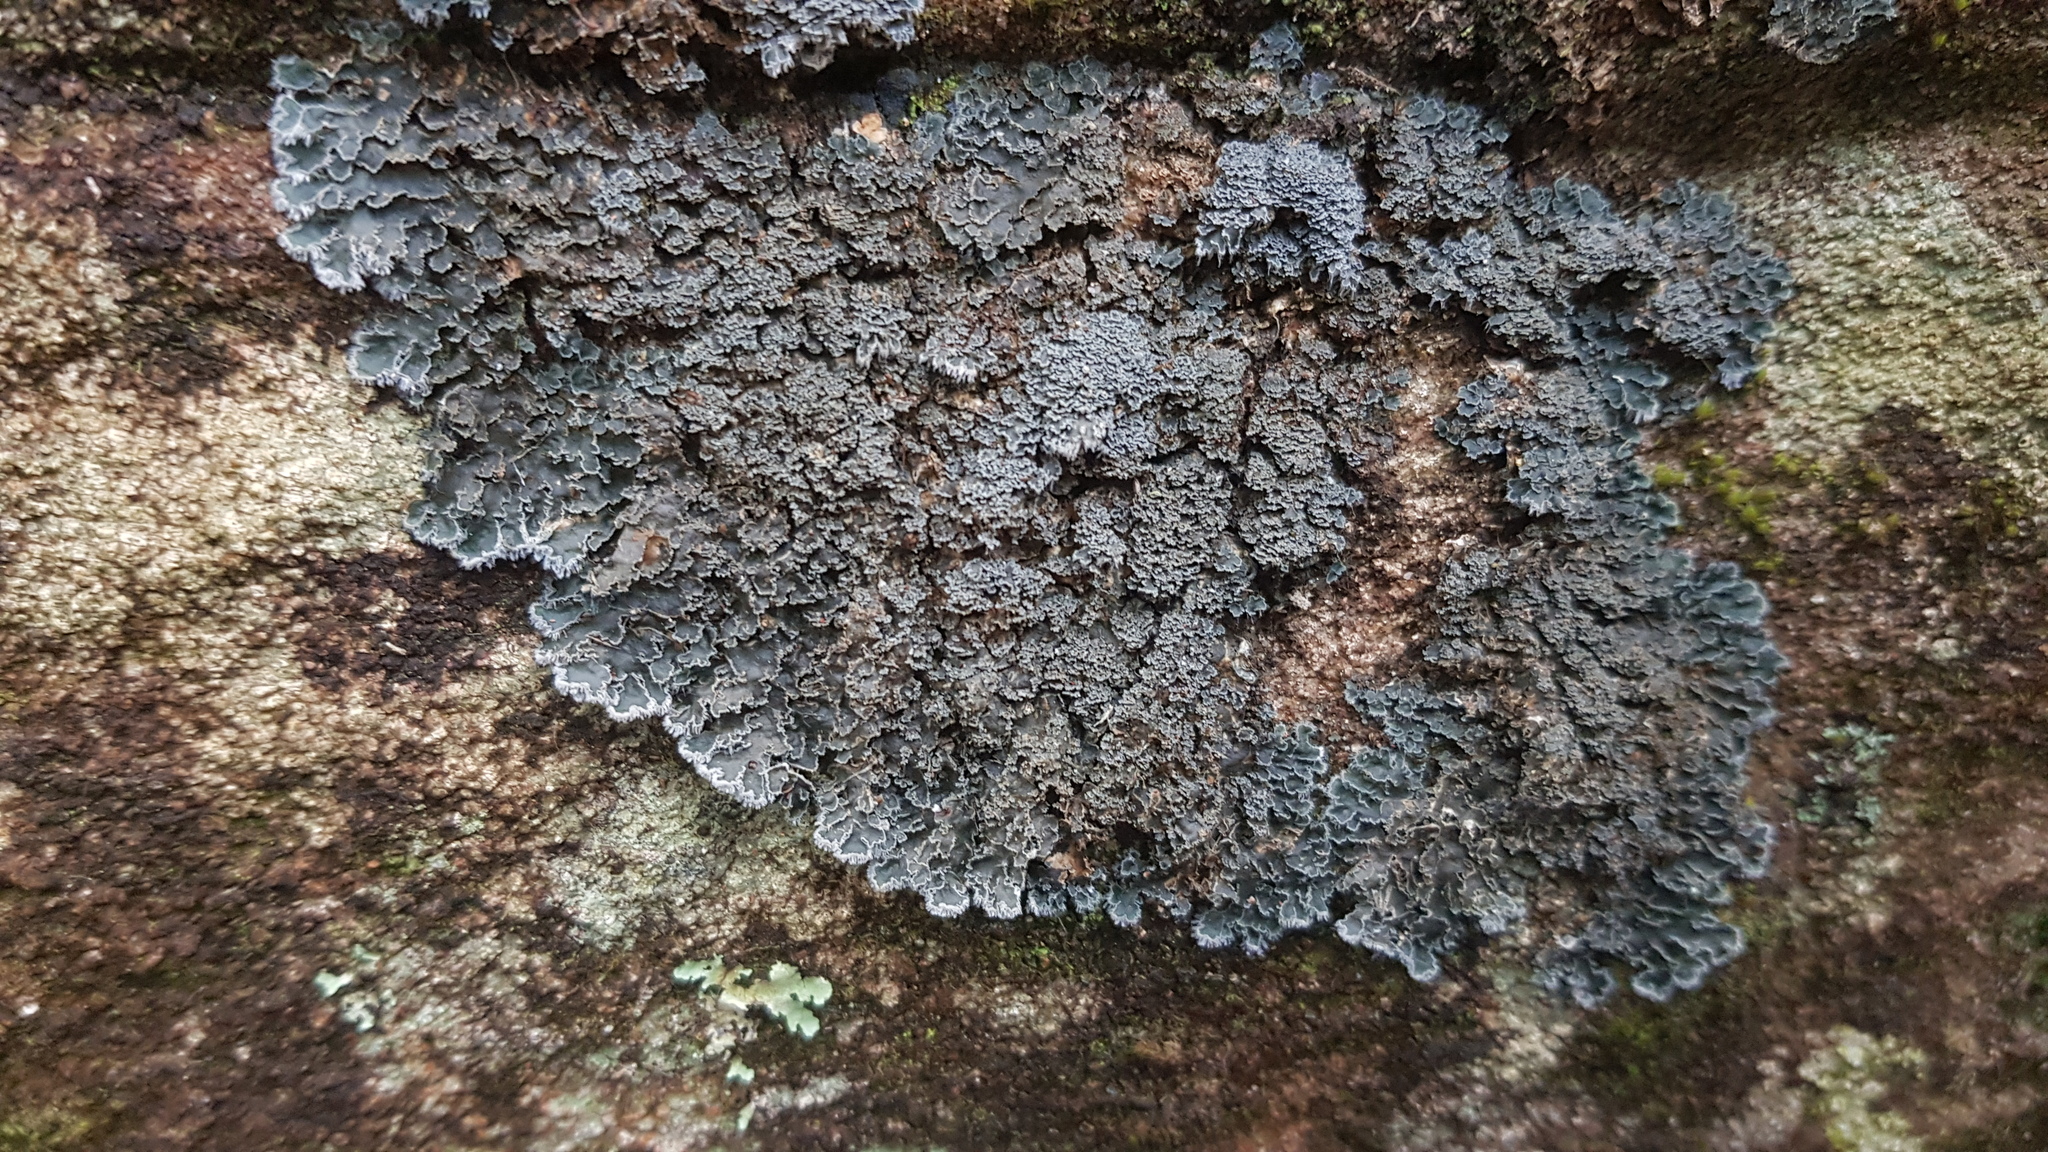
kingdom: Fungi
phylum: Ascomycota
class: Lecanoromycetes
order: Peltigerales
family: Pannariaceae
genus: Leioderma
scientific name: Leioderma duplicatum
